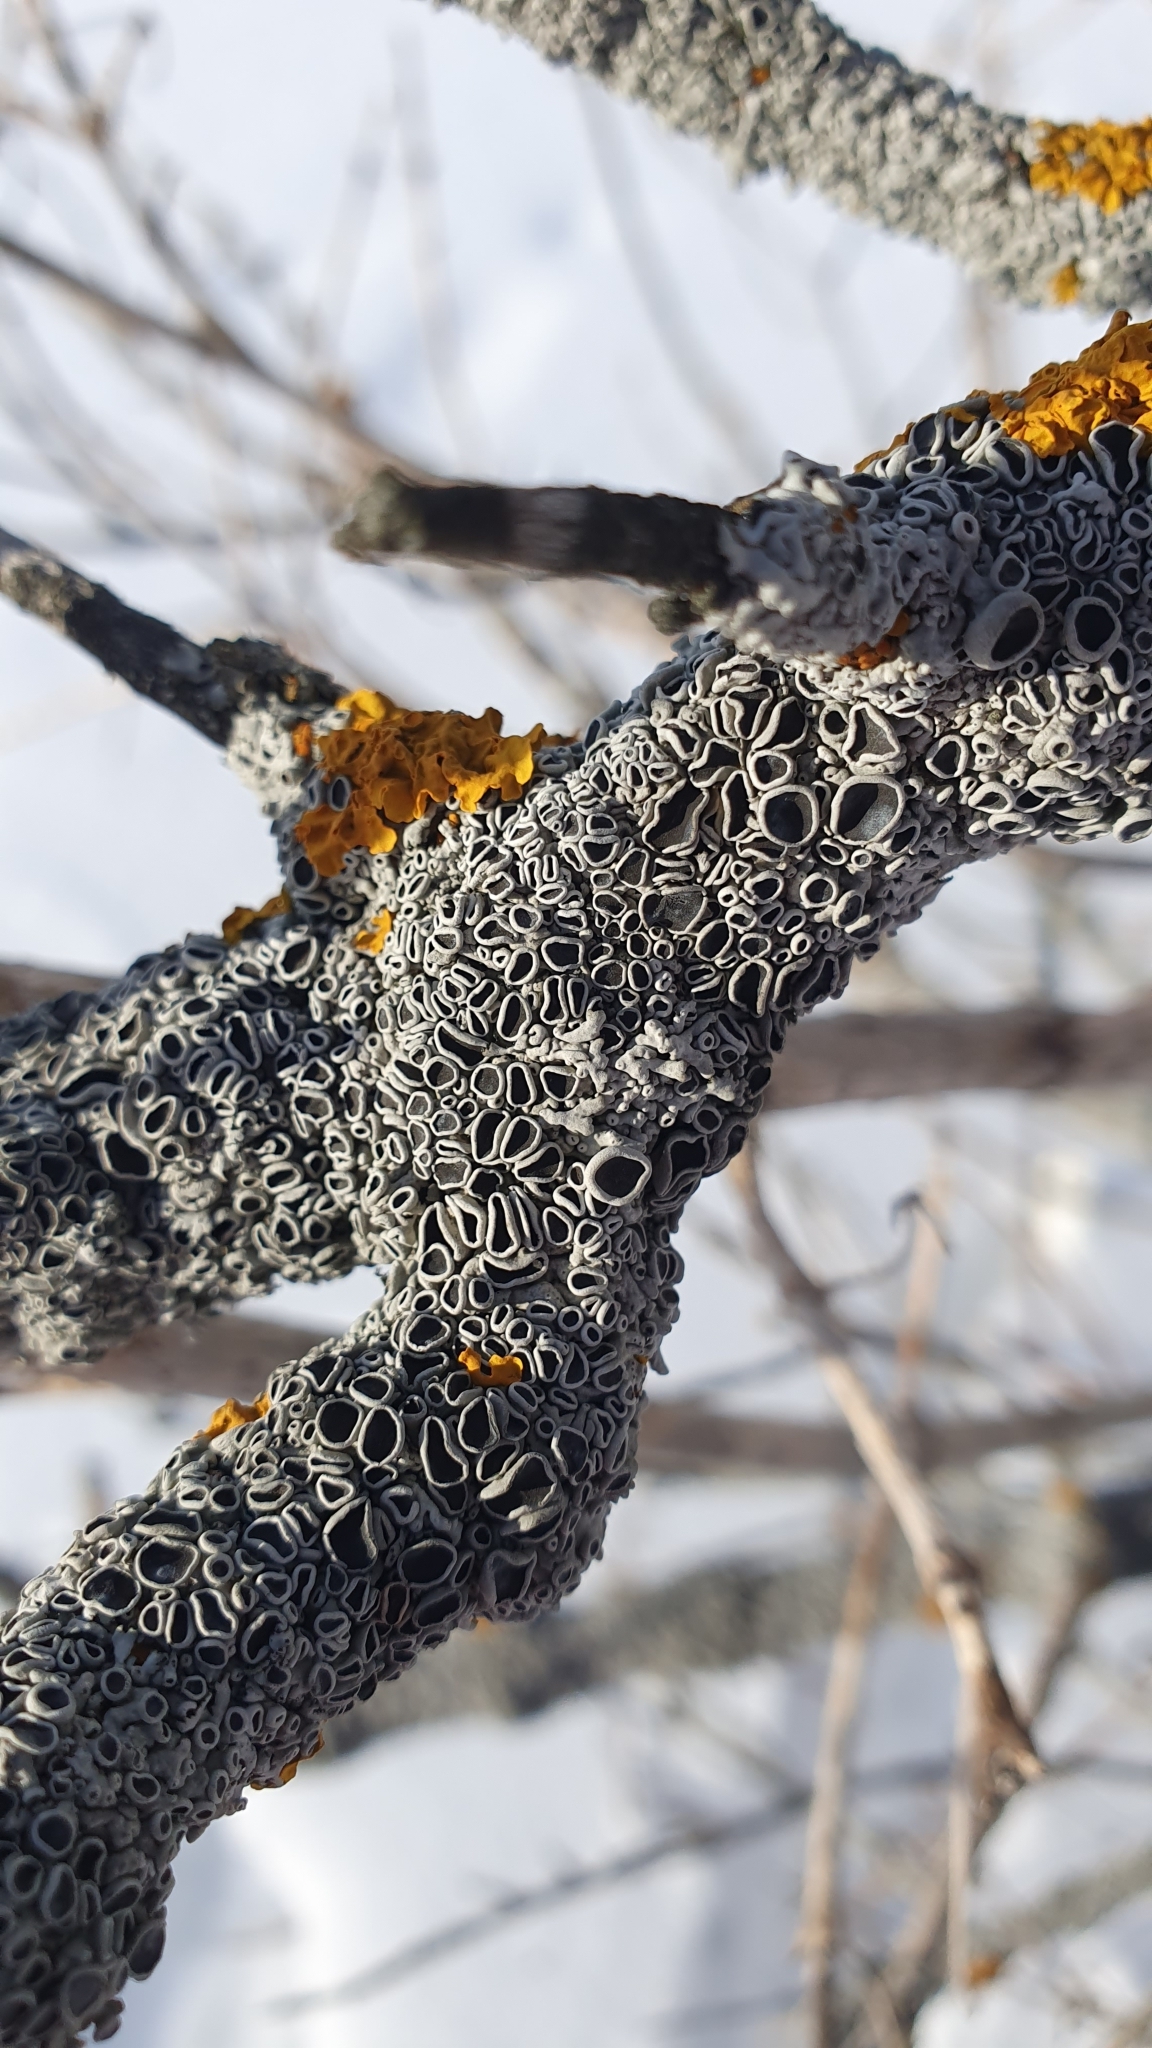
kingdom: Fungi
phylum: Ascomycota
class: Lecanoromycetes
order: Caliciales
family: Physciaceae
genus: Physcia
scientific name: Physcia stellaris
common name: Star rosette lichen
